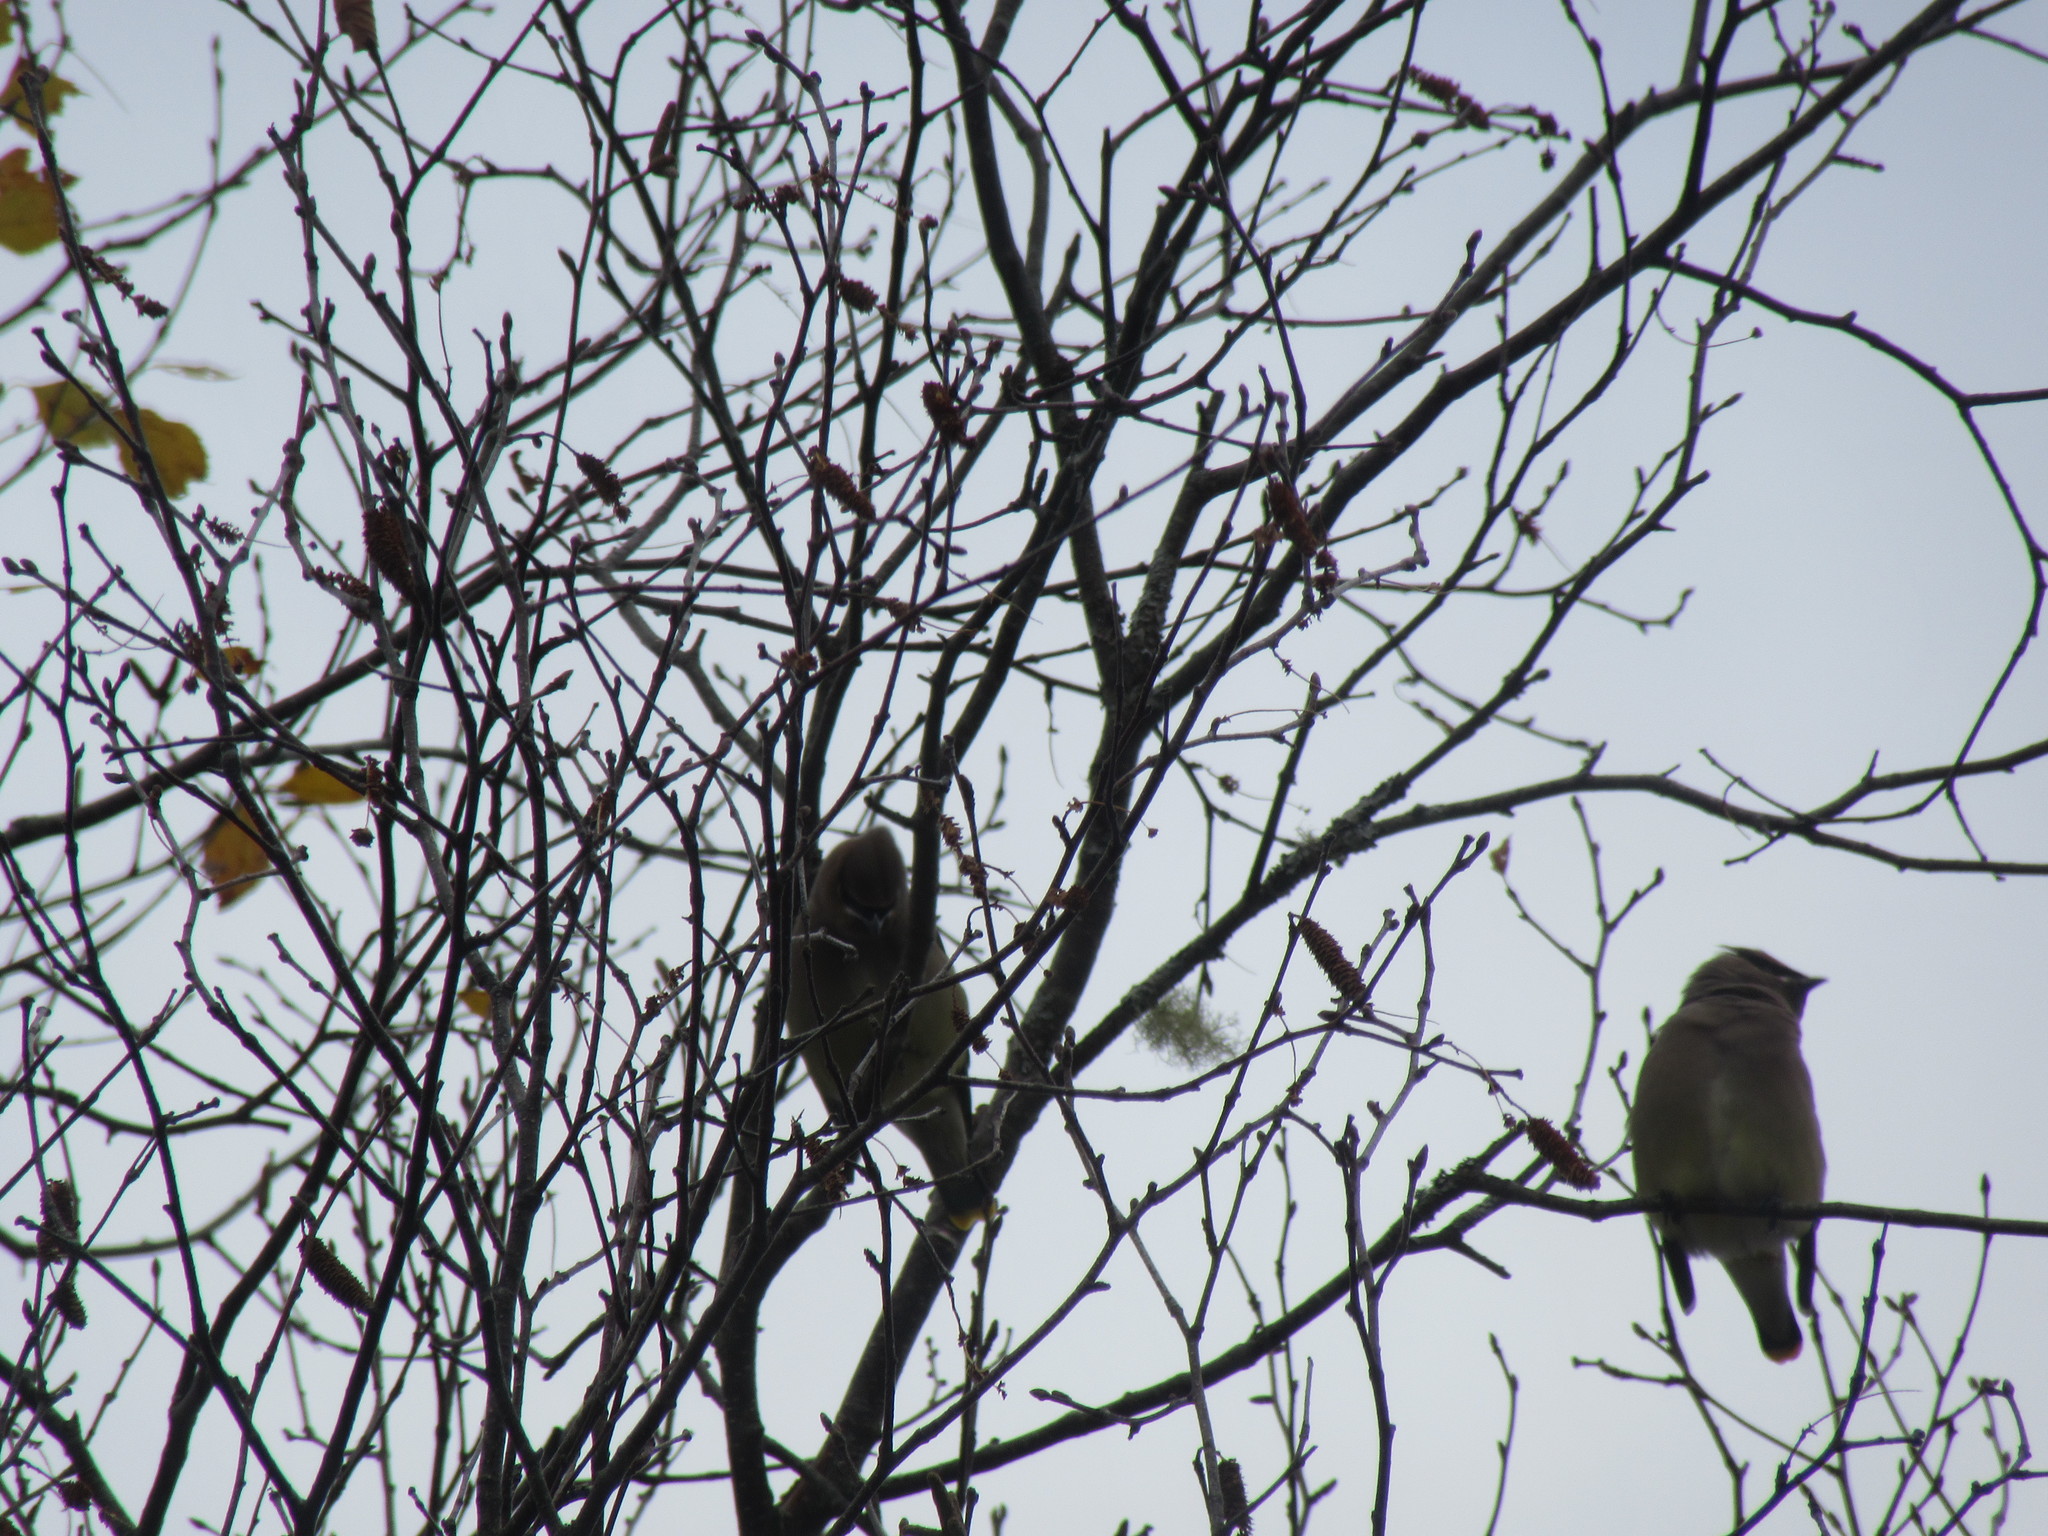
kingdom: Animalia
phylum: Chordata
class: Aves
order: Passeriformes
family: Bombycillidae
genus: Bombycilla
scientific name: Bombycilla cedrorum
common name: Cedar waxwing
